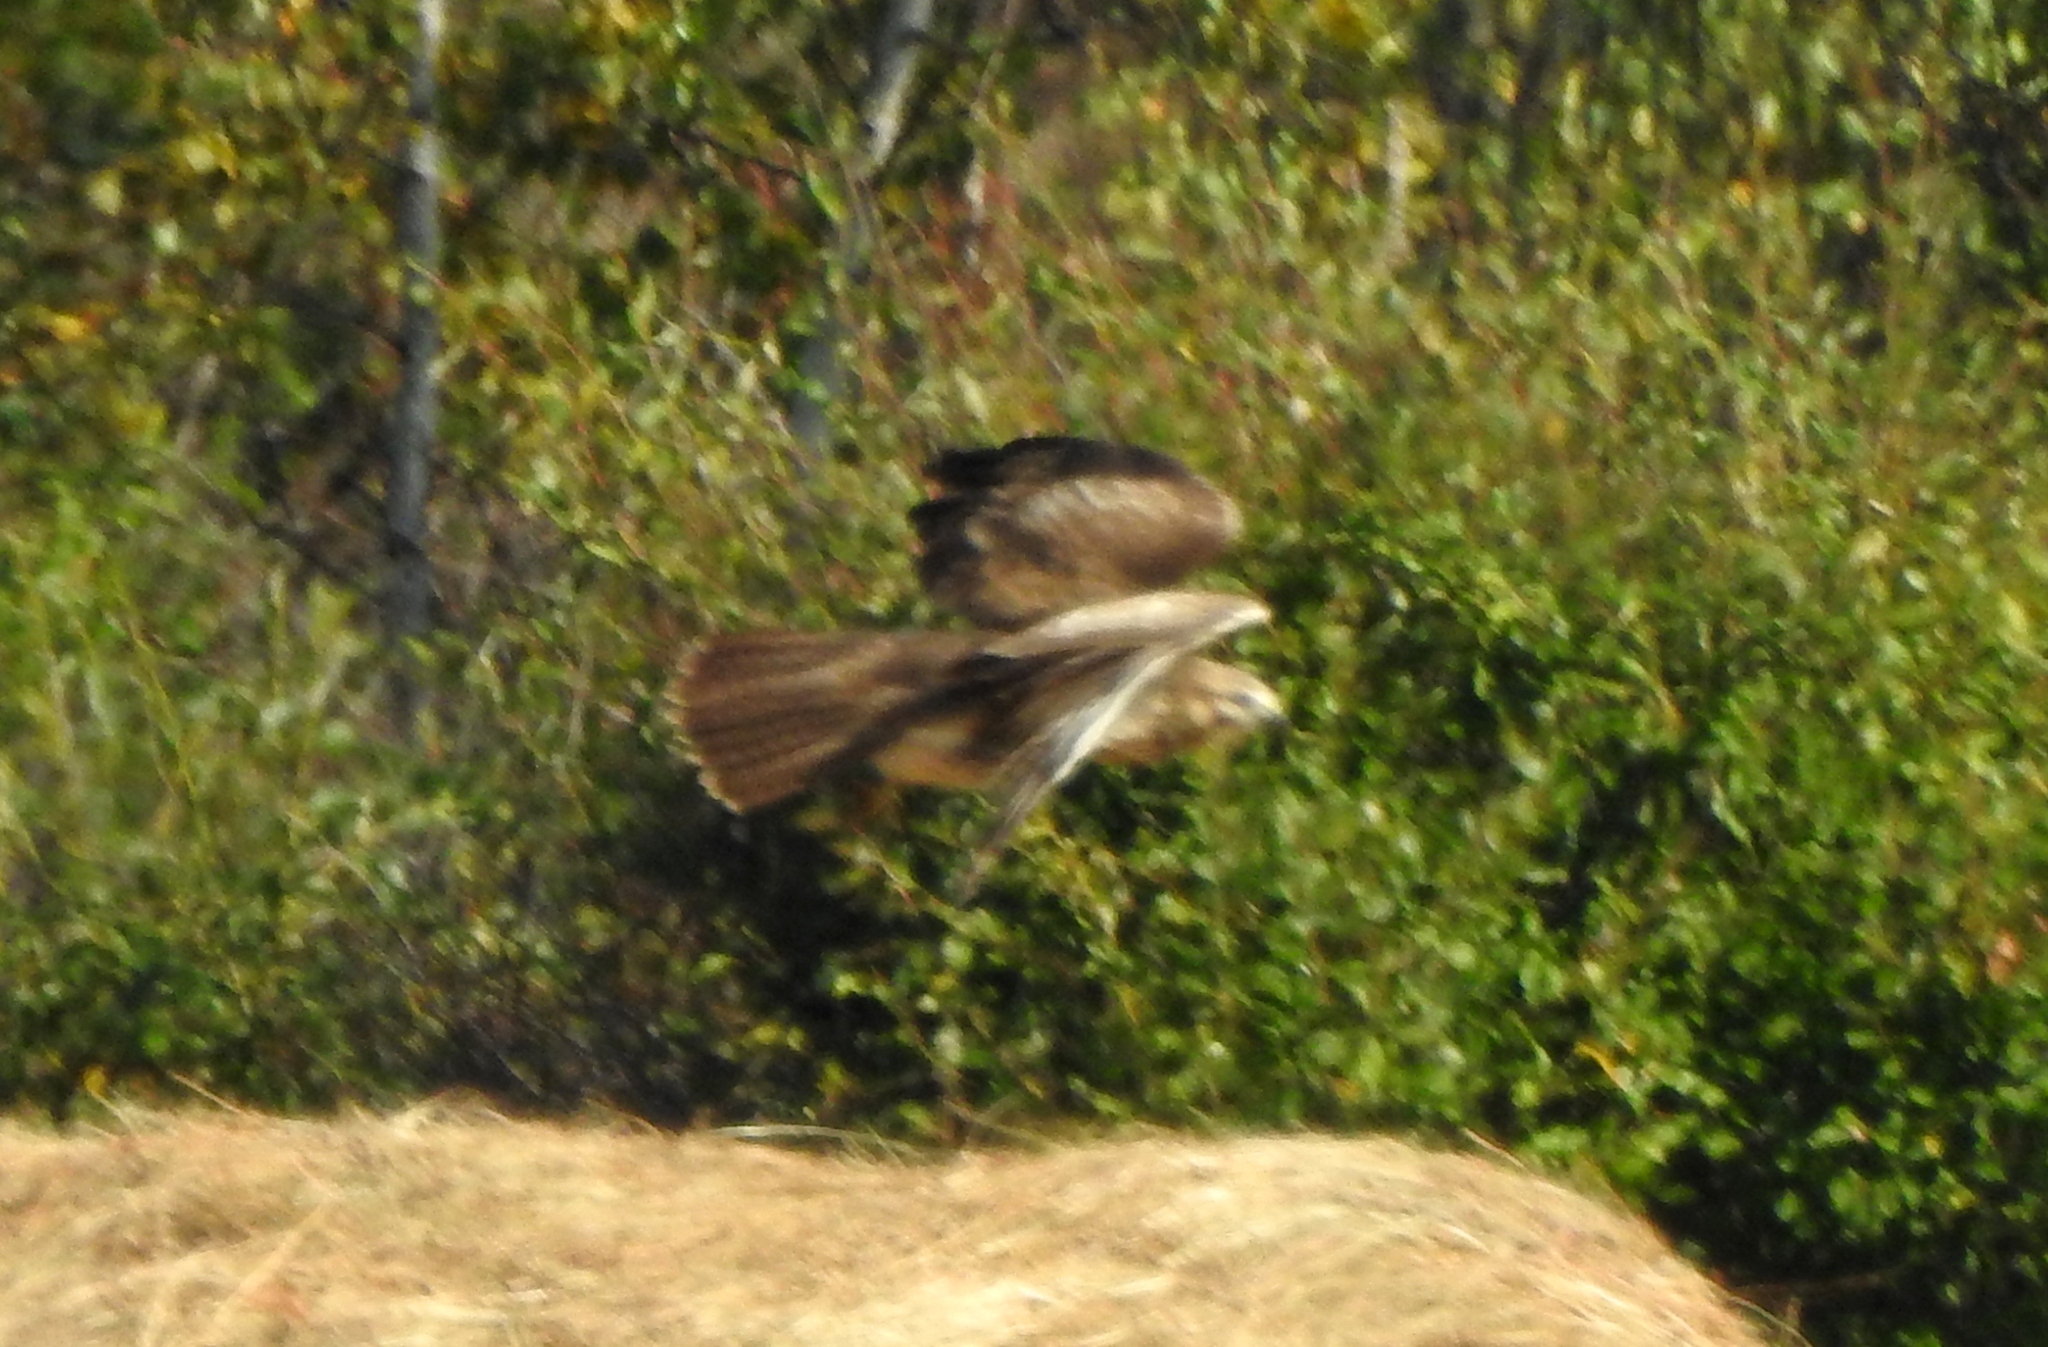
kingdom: Animalia
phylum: Chordata
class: Aves
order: Accipitriformes
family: Accipitridae
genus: Buteo
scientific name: Buteo japonicus
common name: Eastern buzzard
